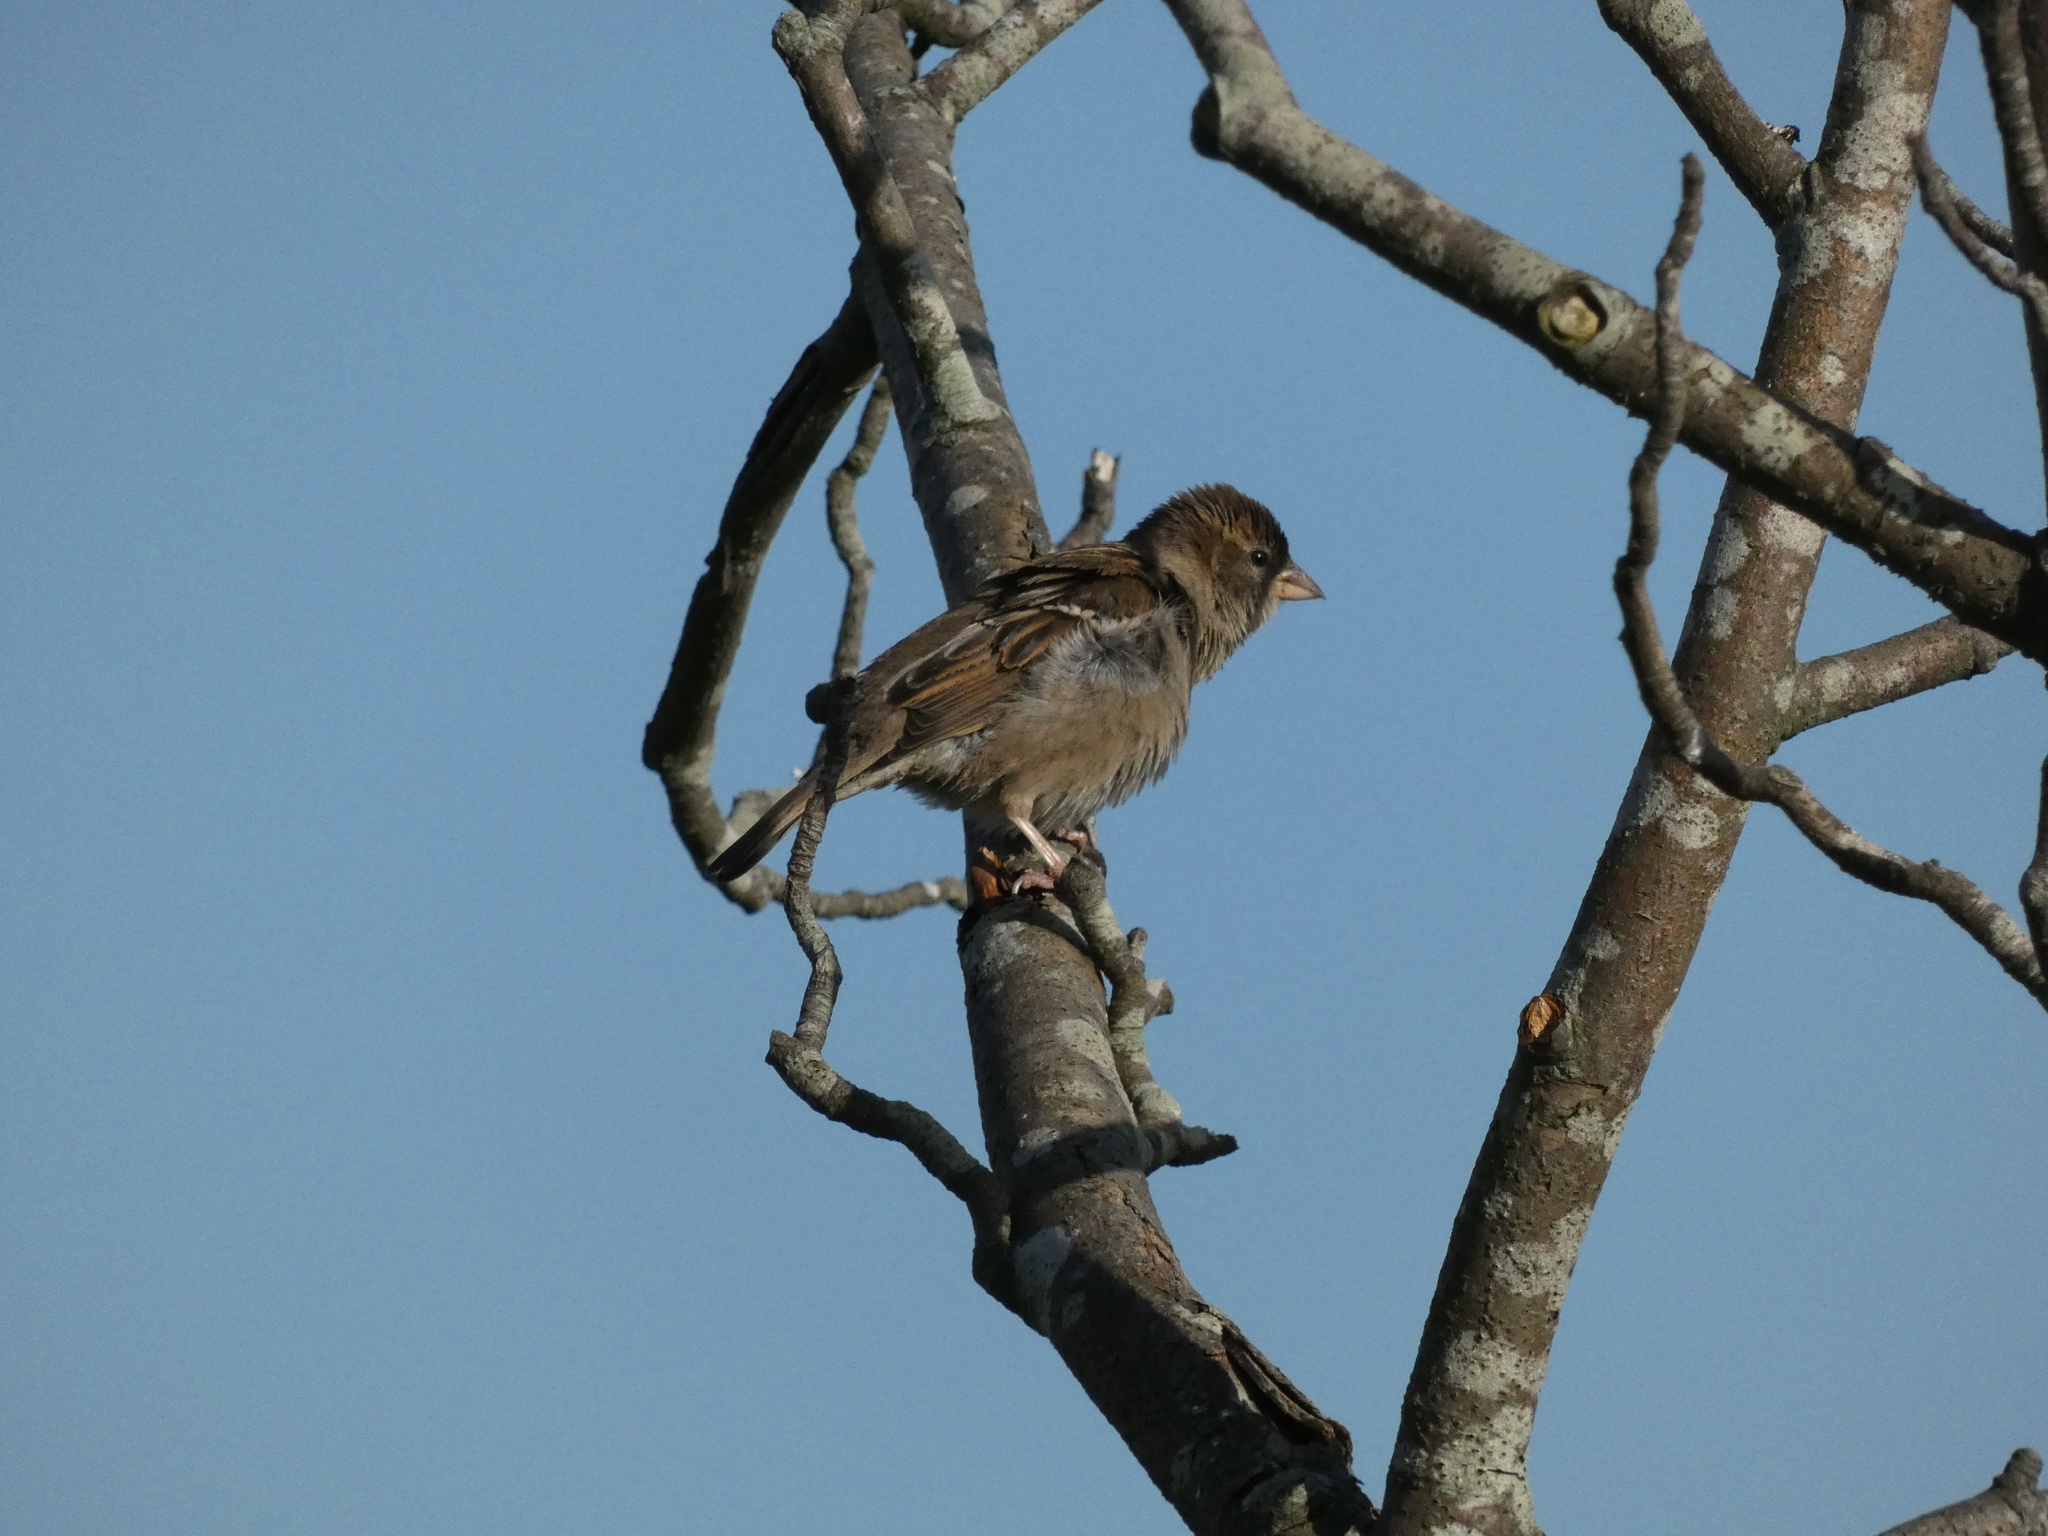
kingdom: Animalia
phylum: Chordata
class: Aves
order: Passeriformes
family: Passeridae
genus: Passer
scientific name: Passer domesticus
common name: House sparrow
